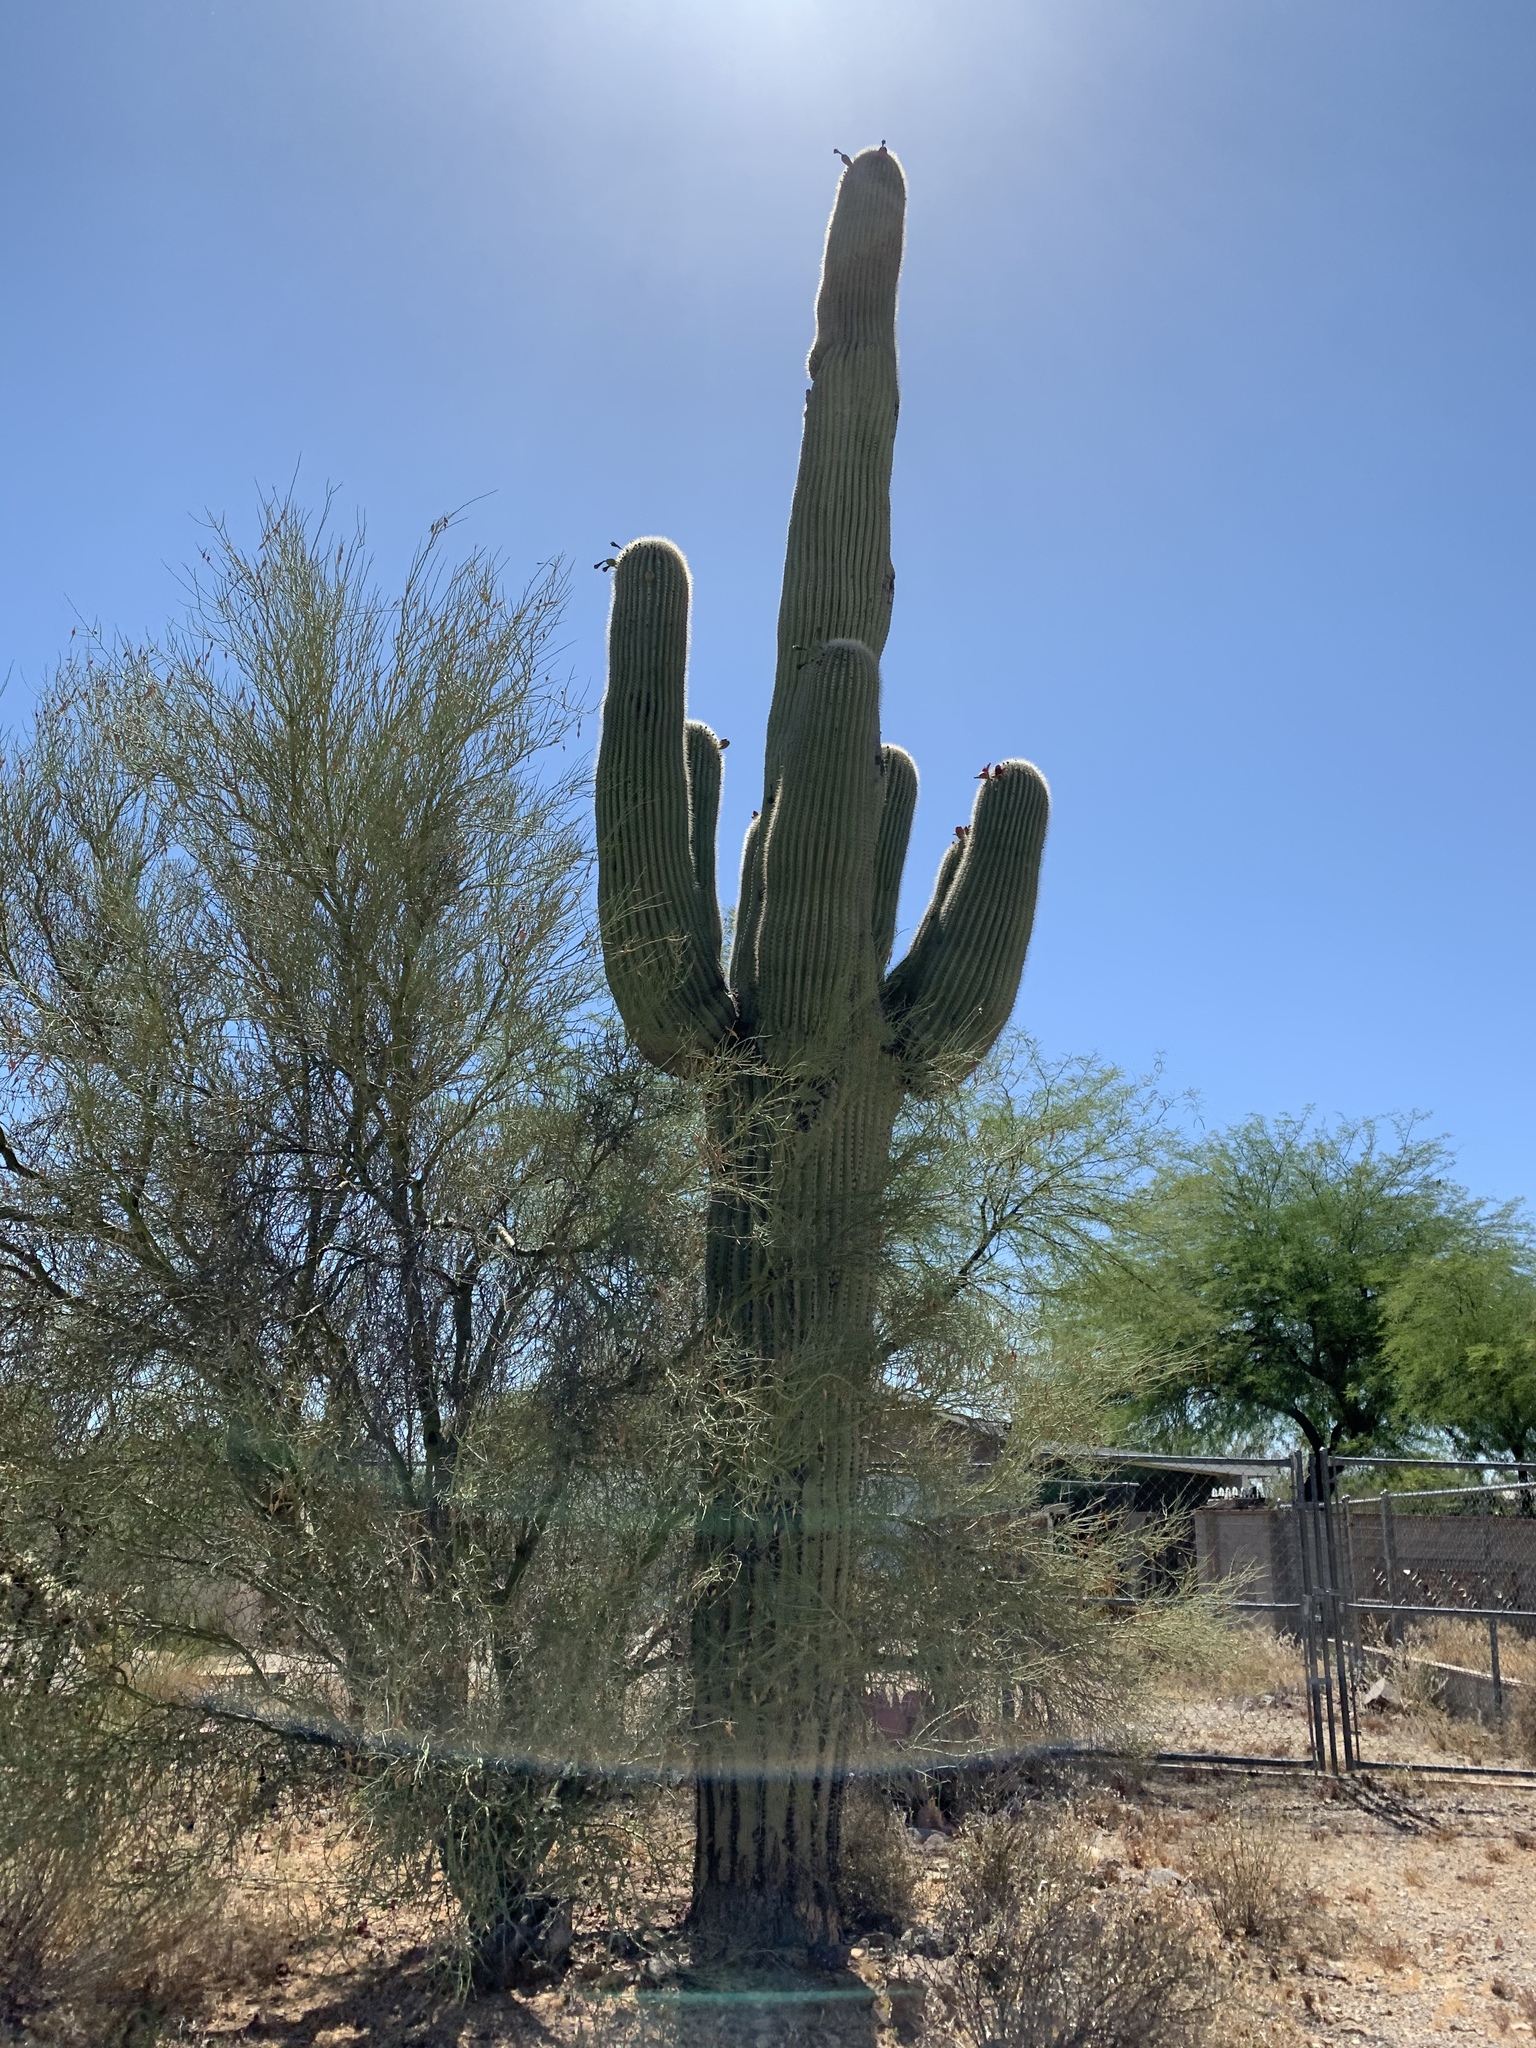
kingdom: Plantae
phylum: Tracheophyta
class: Magnoliopsida
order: Caryophyllales
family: Cactaceae
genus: Carnegiea
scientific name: Carnegiea gigantea
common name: Saguaro
